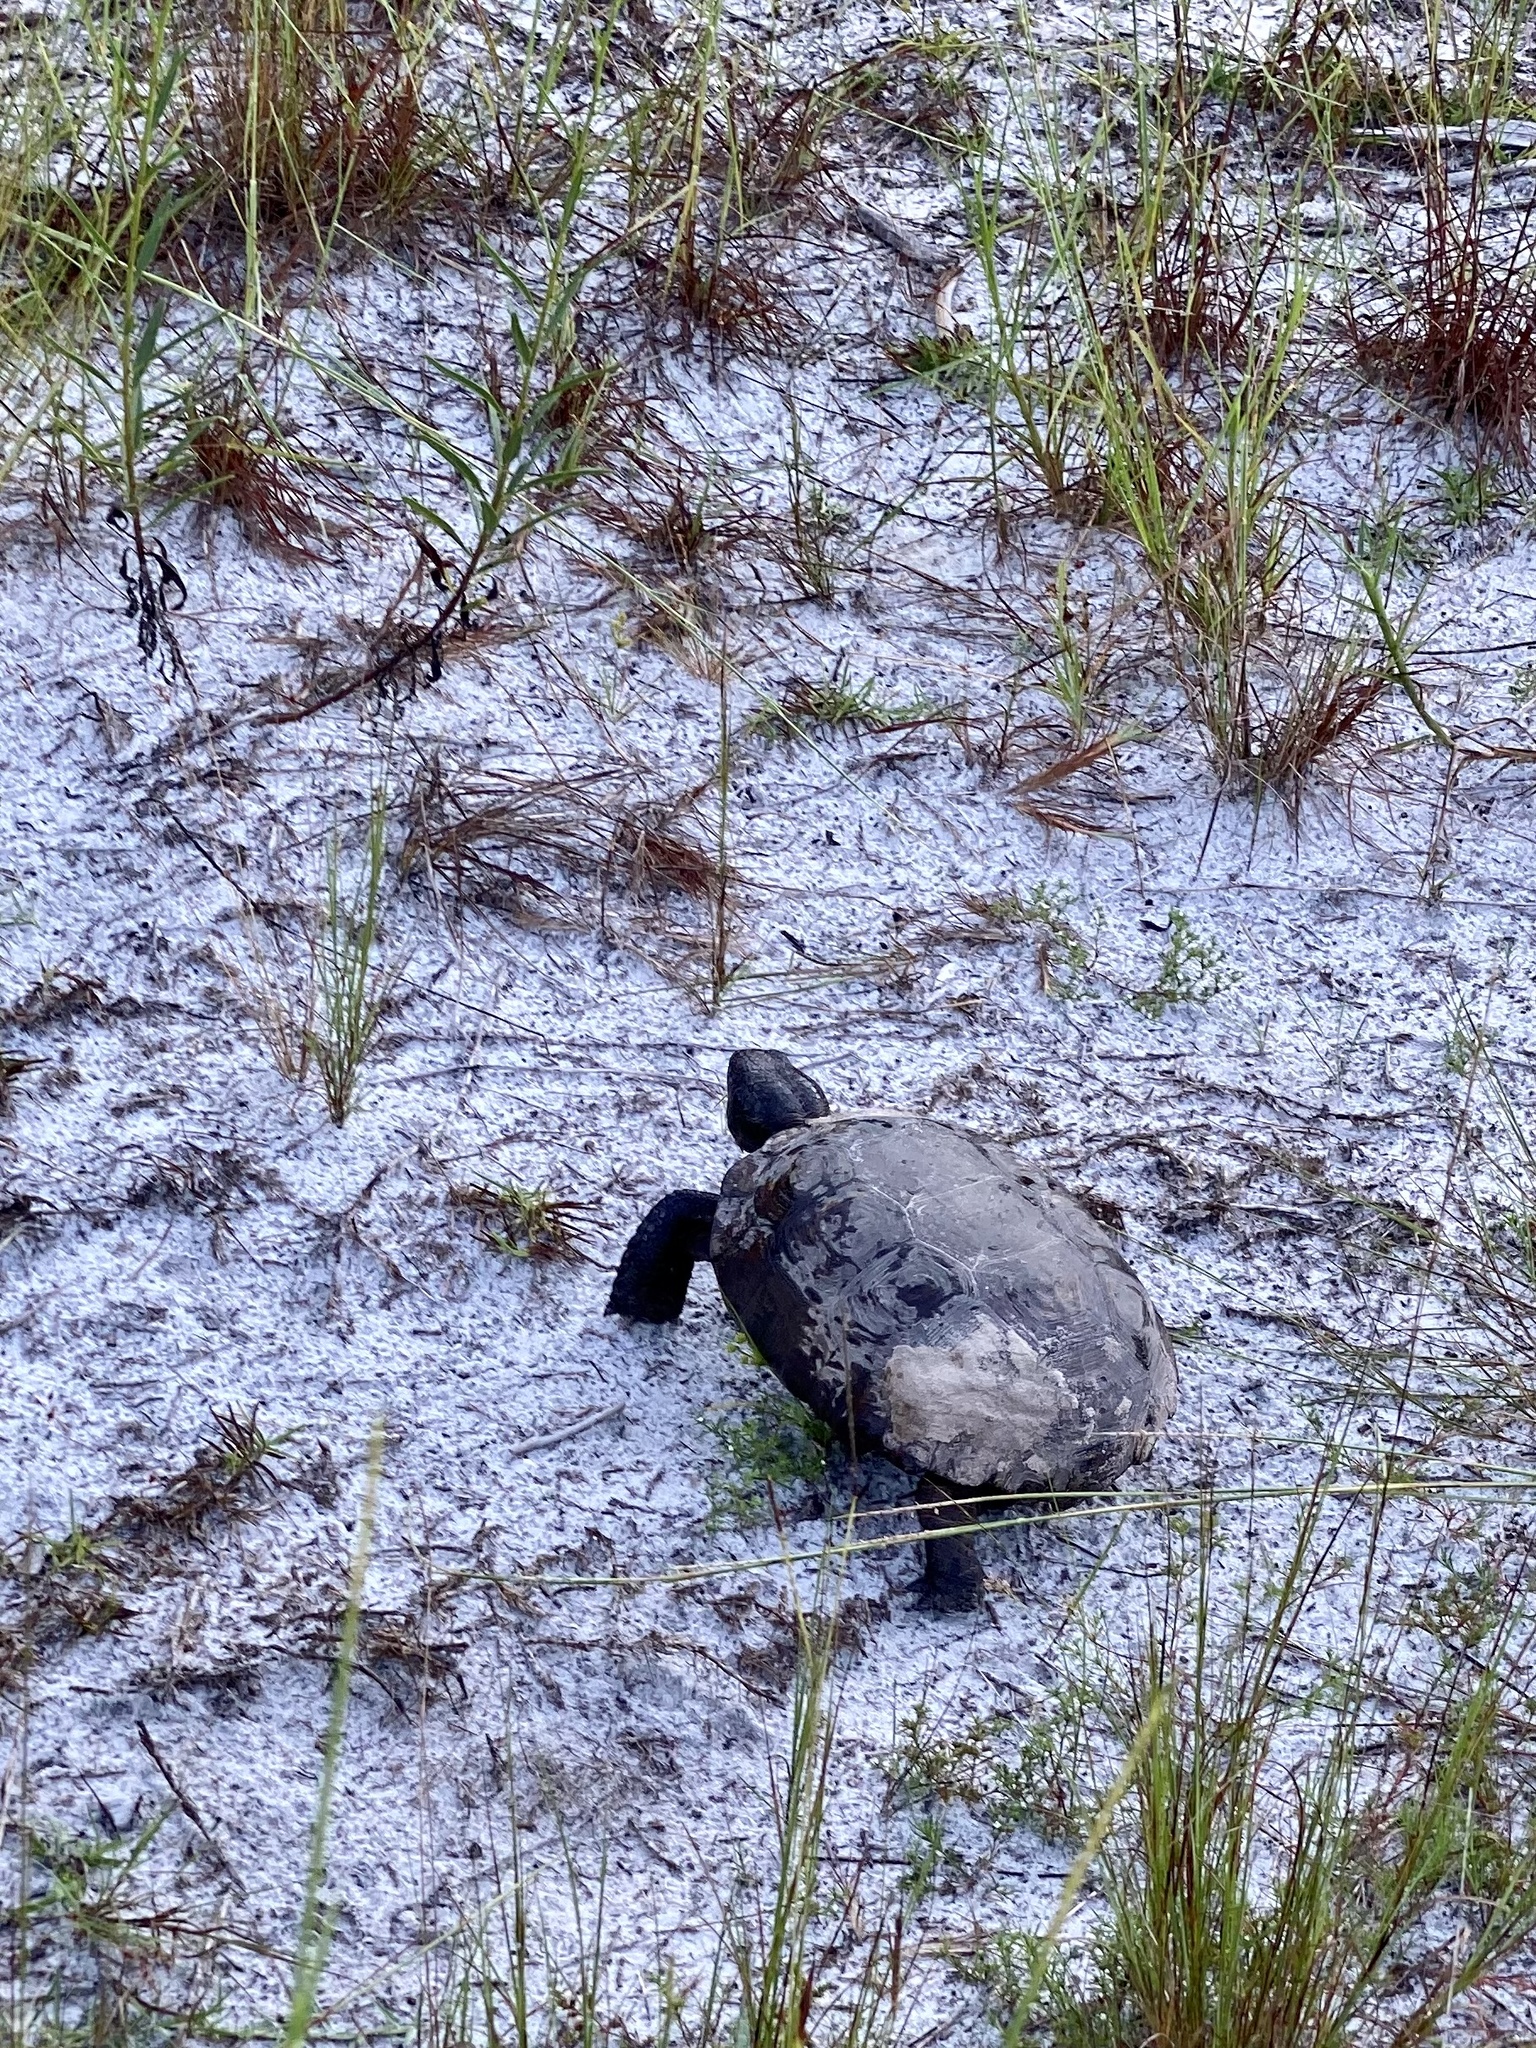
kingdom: Animalia
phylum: Chordata
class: Testudines
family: Testudinidae
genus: Gopherus
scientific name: Gopherus polyphemus
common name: Florida gopher tortoise
